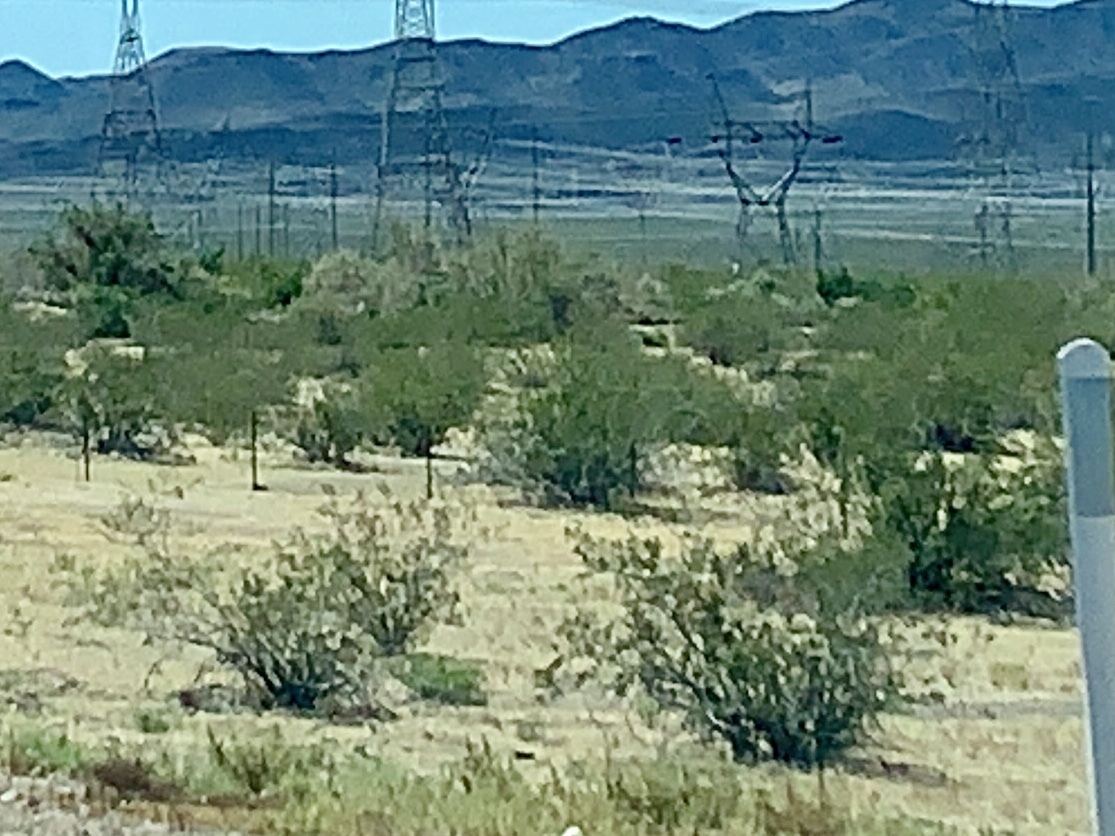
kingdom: Plantae
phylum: Tracheophyta
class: Magnoliopsida
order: Zygophyllales
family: Zygophyllaceae
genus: Larrea
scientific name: Larrea tridentata
